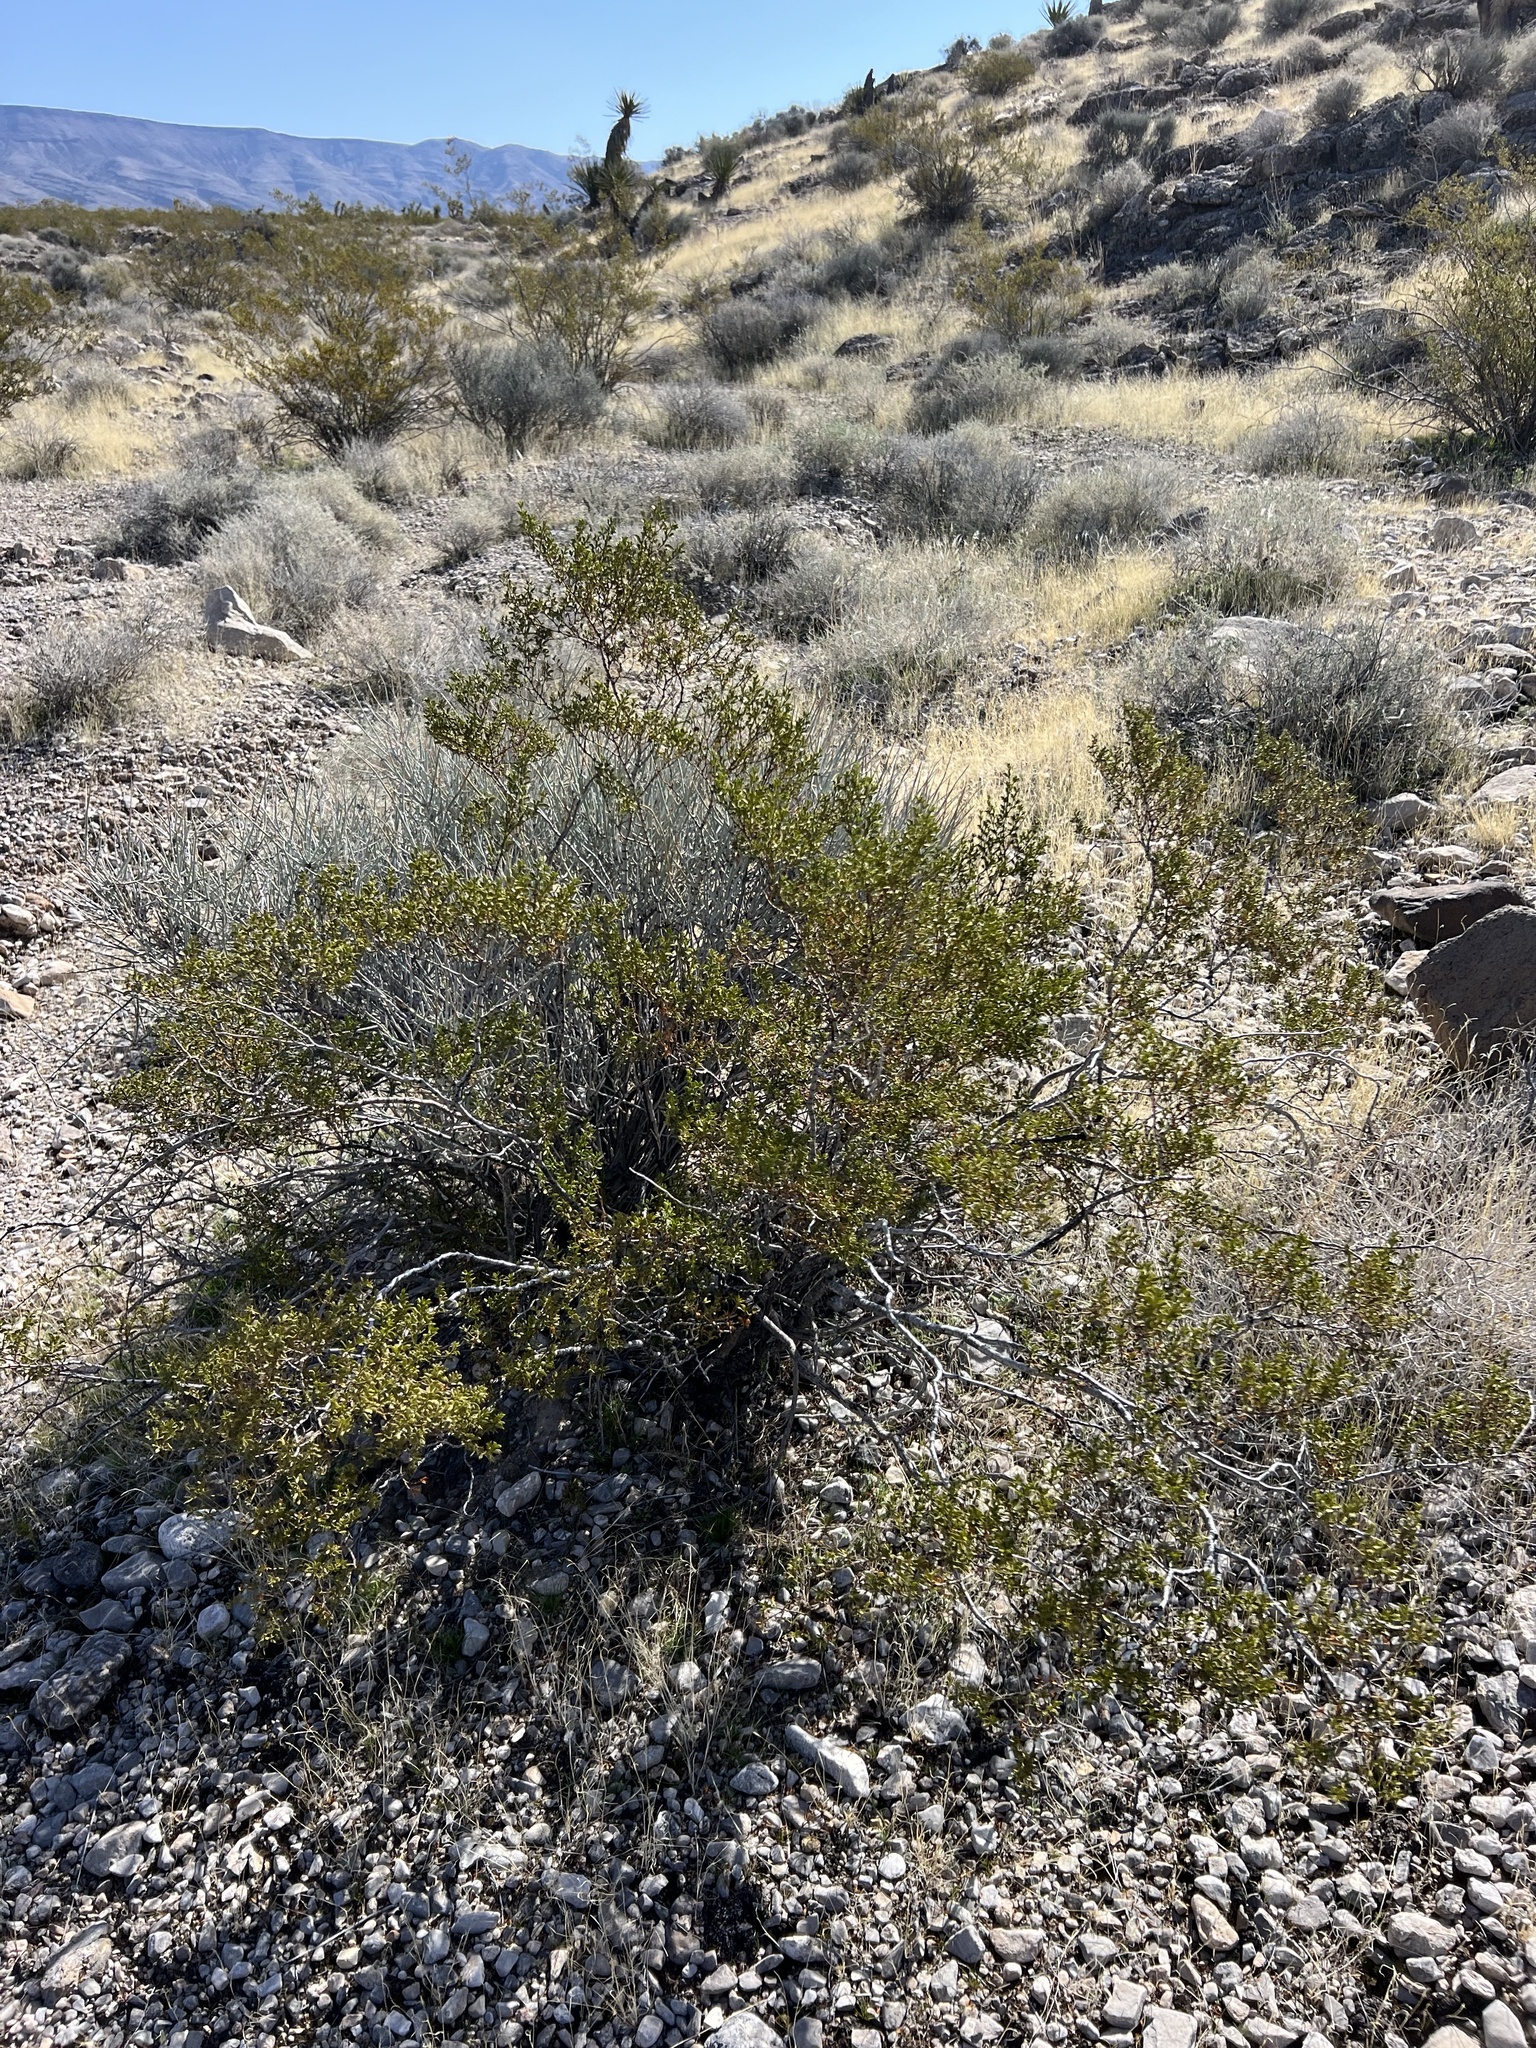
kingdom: Plantae
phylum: Tracheophyta
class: Magnoliopsida
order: Zygophyllales
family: Zygophyllaceae
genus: Larrea
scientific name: Larrea tridentata
